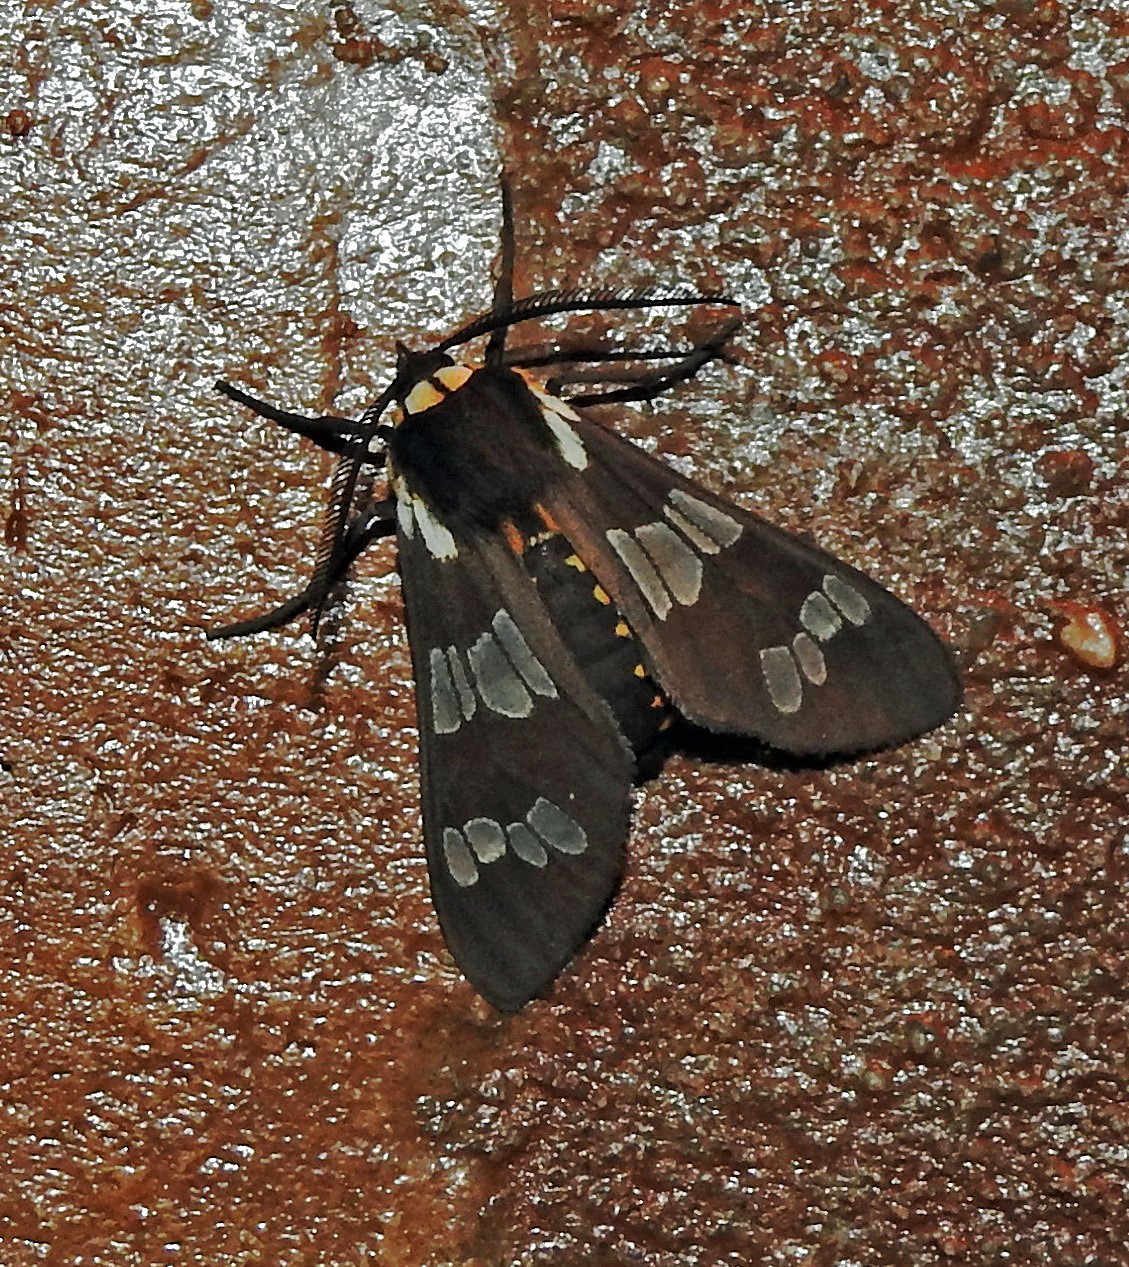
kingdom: Animalia
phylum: Arthropoda
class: Insecta
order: Lepidoptera
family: Erebidae
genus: Eurata
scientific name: Eurata
